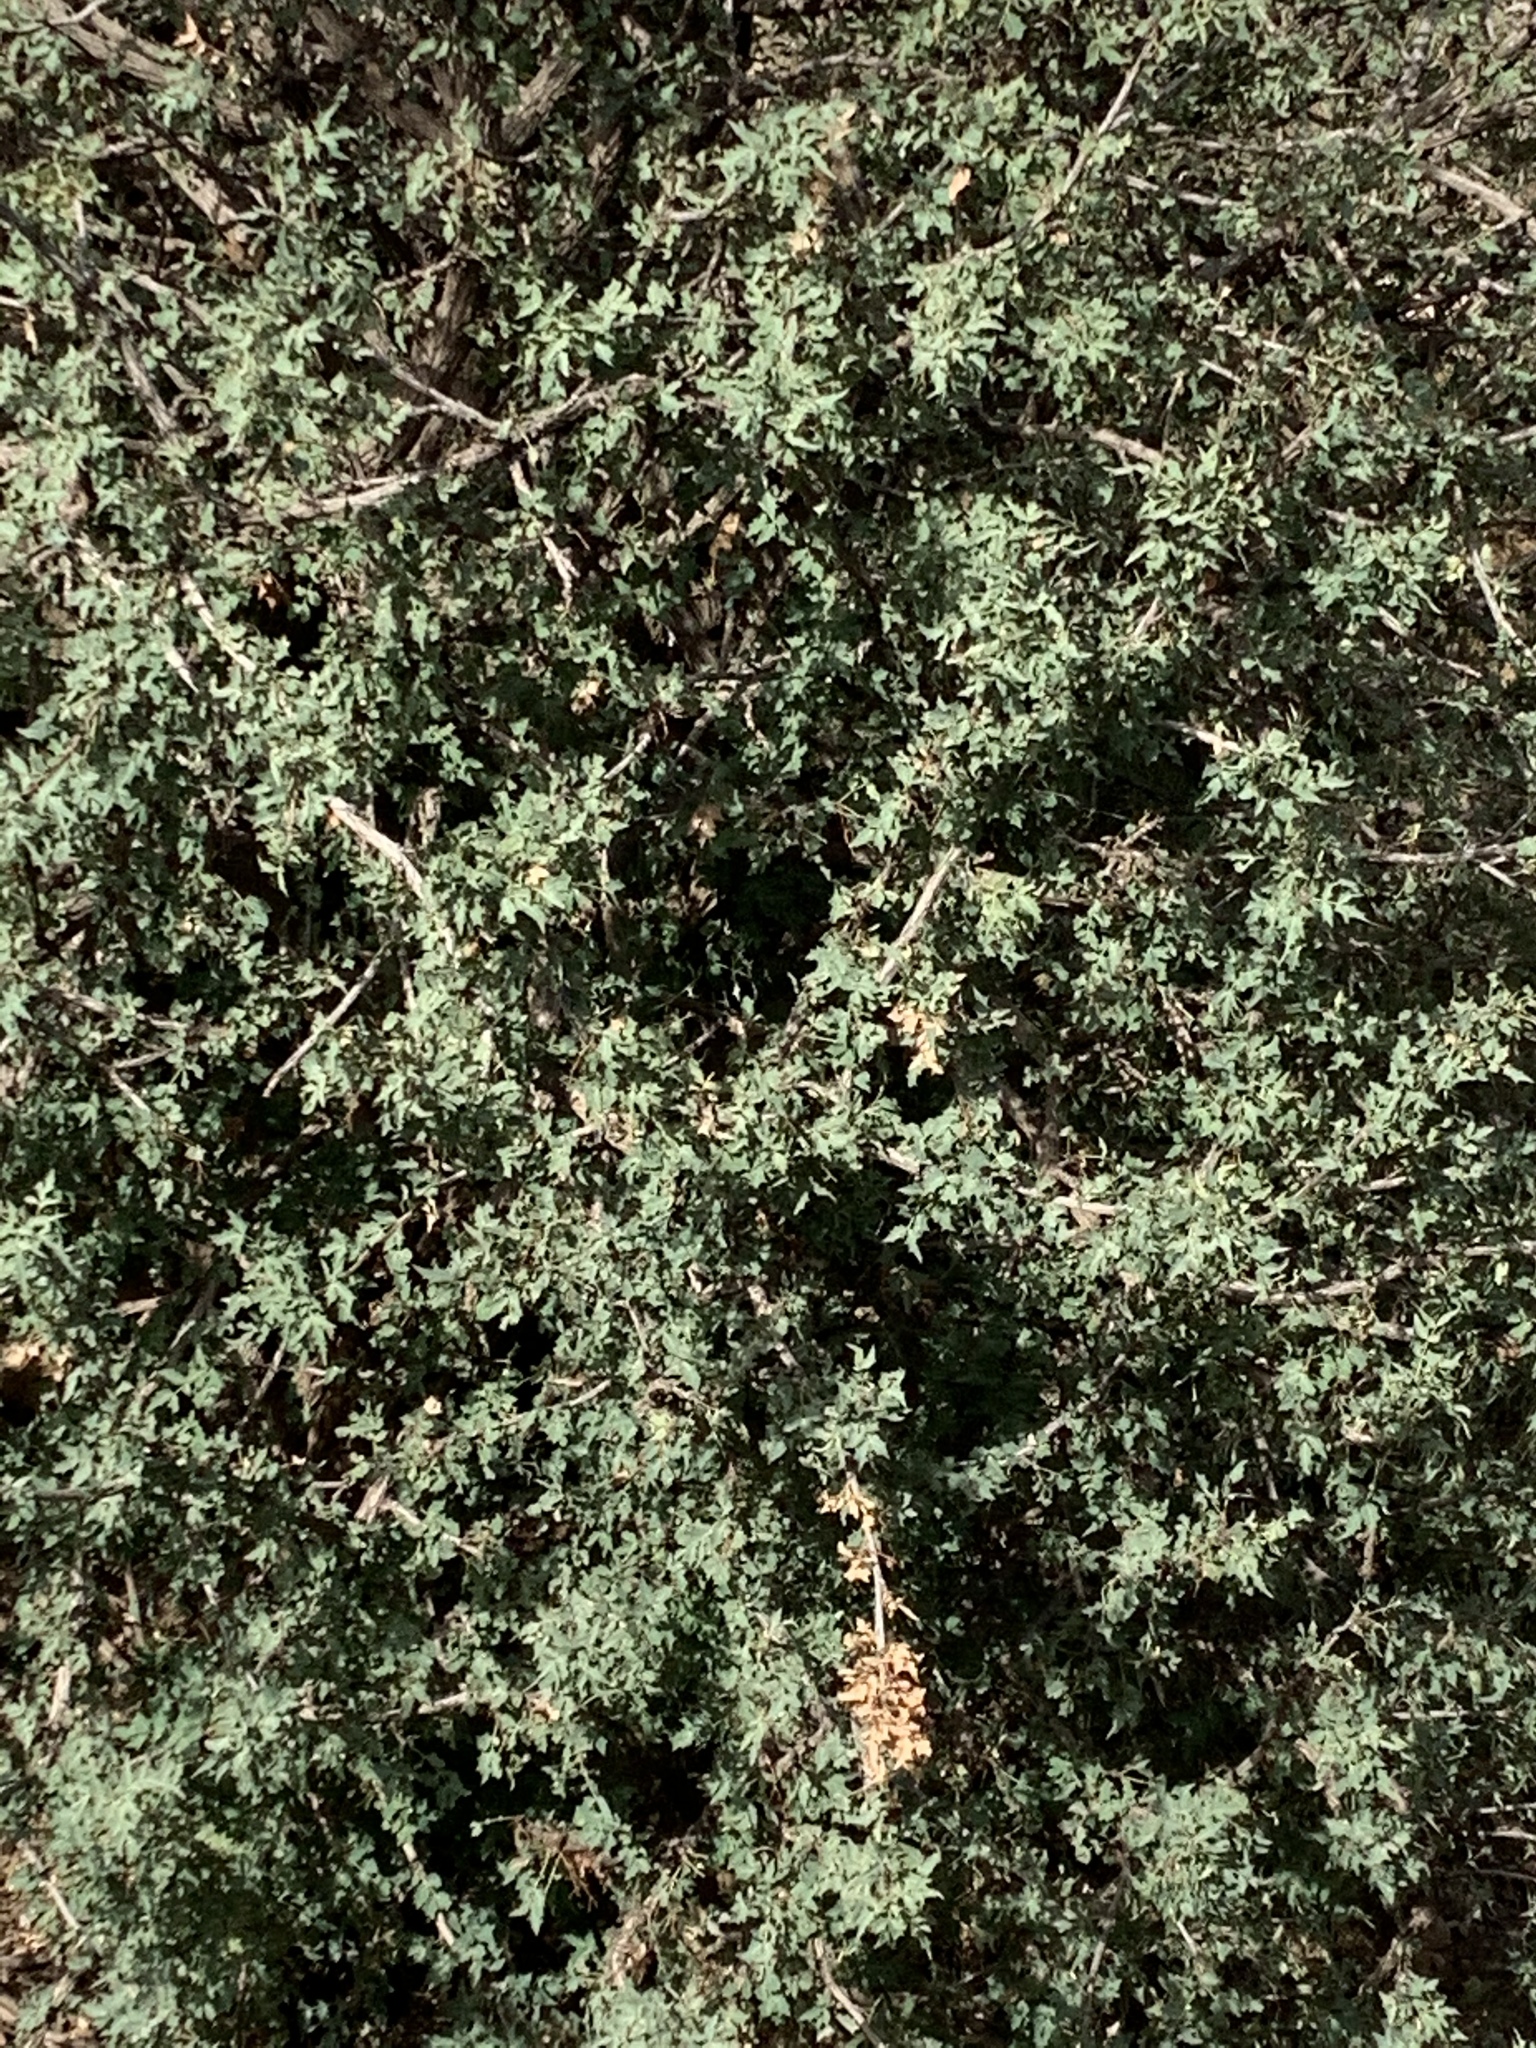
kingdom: Plantae
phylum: Tracheophyta
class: Magnoliopsida
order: Ranunculales
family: Berberidaceae
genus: Alloberberis
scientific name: Alloberberis haematocarpa
